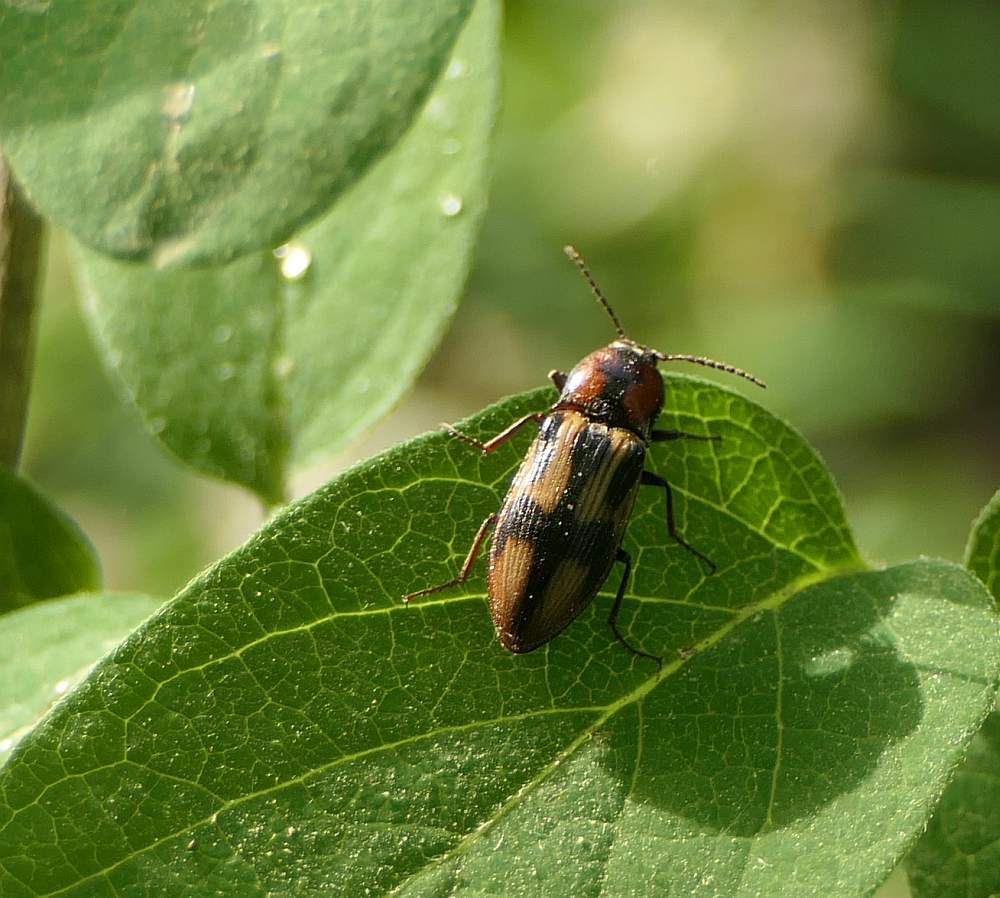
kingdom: Animalia
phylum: Arthropoda
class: Insecta
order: Coleoptera
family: Elateridae
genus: Selatosomus
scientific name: Selatosomus pulcher
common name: Noble click beetle
